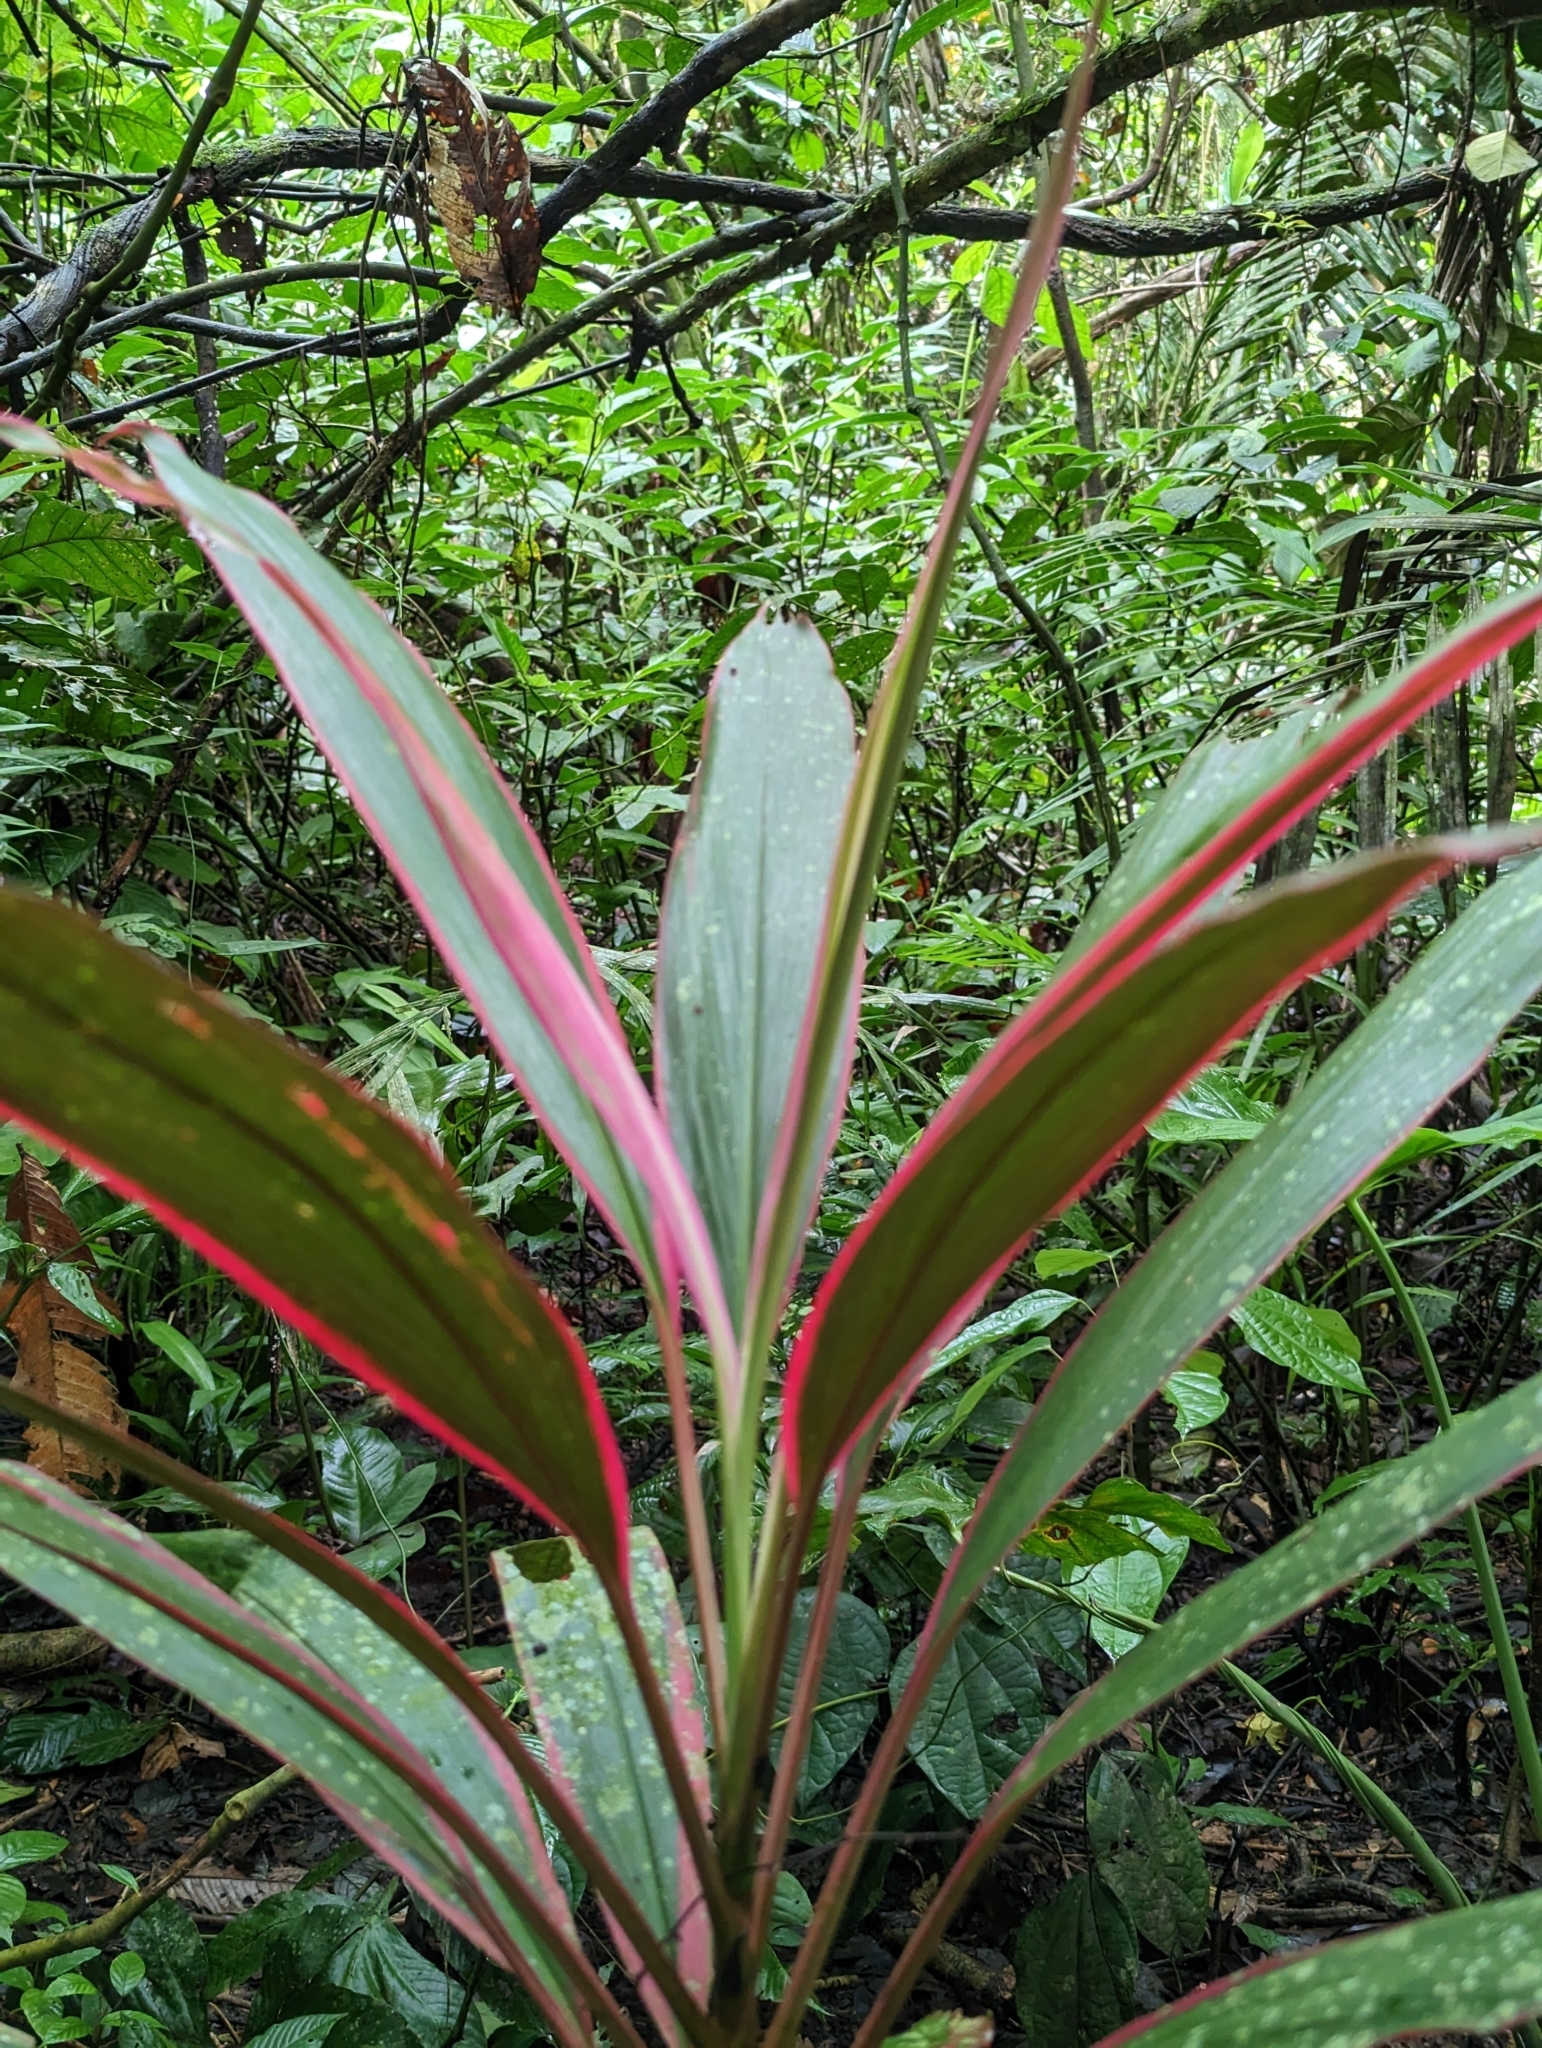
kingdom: Plantae
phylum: Tracheophyta
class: Liliopsida
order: Asparagales
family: Asparagaceae
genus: Cordyline
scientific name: Cordyline fruticosa
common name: Good-luck-plant
